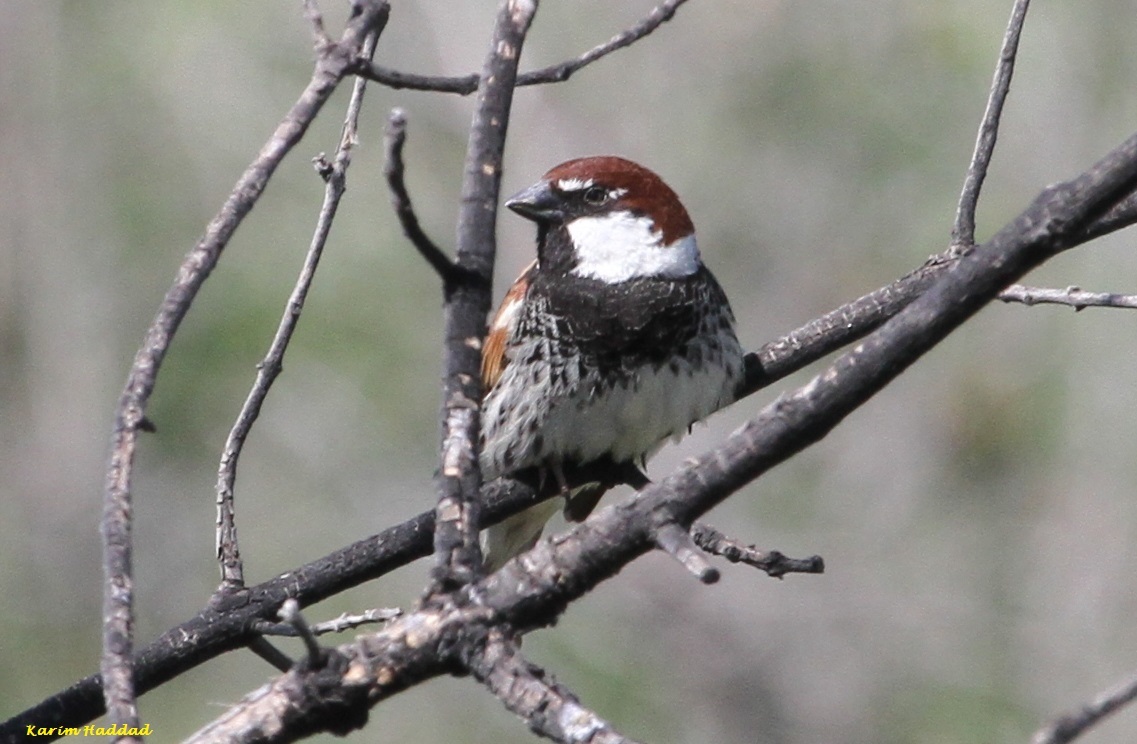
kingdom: Animalia
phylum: Chordata
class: Aves
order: Passeriformes
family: Passeridae
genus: Passer
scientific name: Passer hispaniolensis
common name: Spanish sparrow
